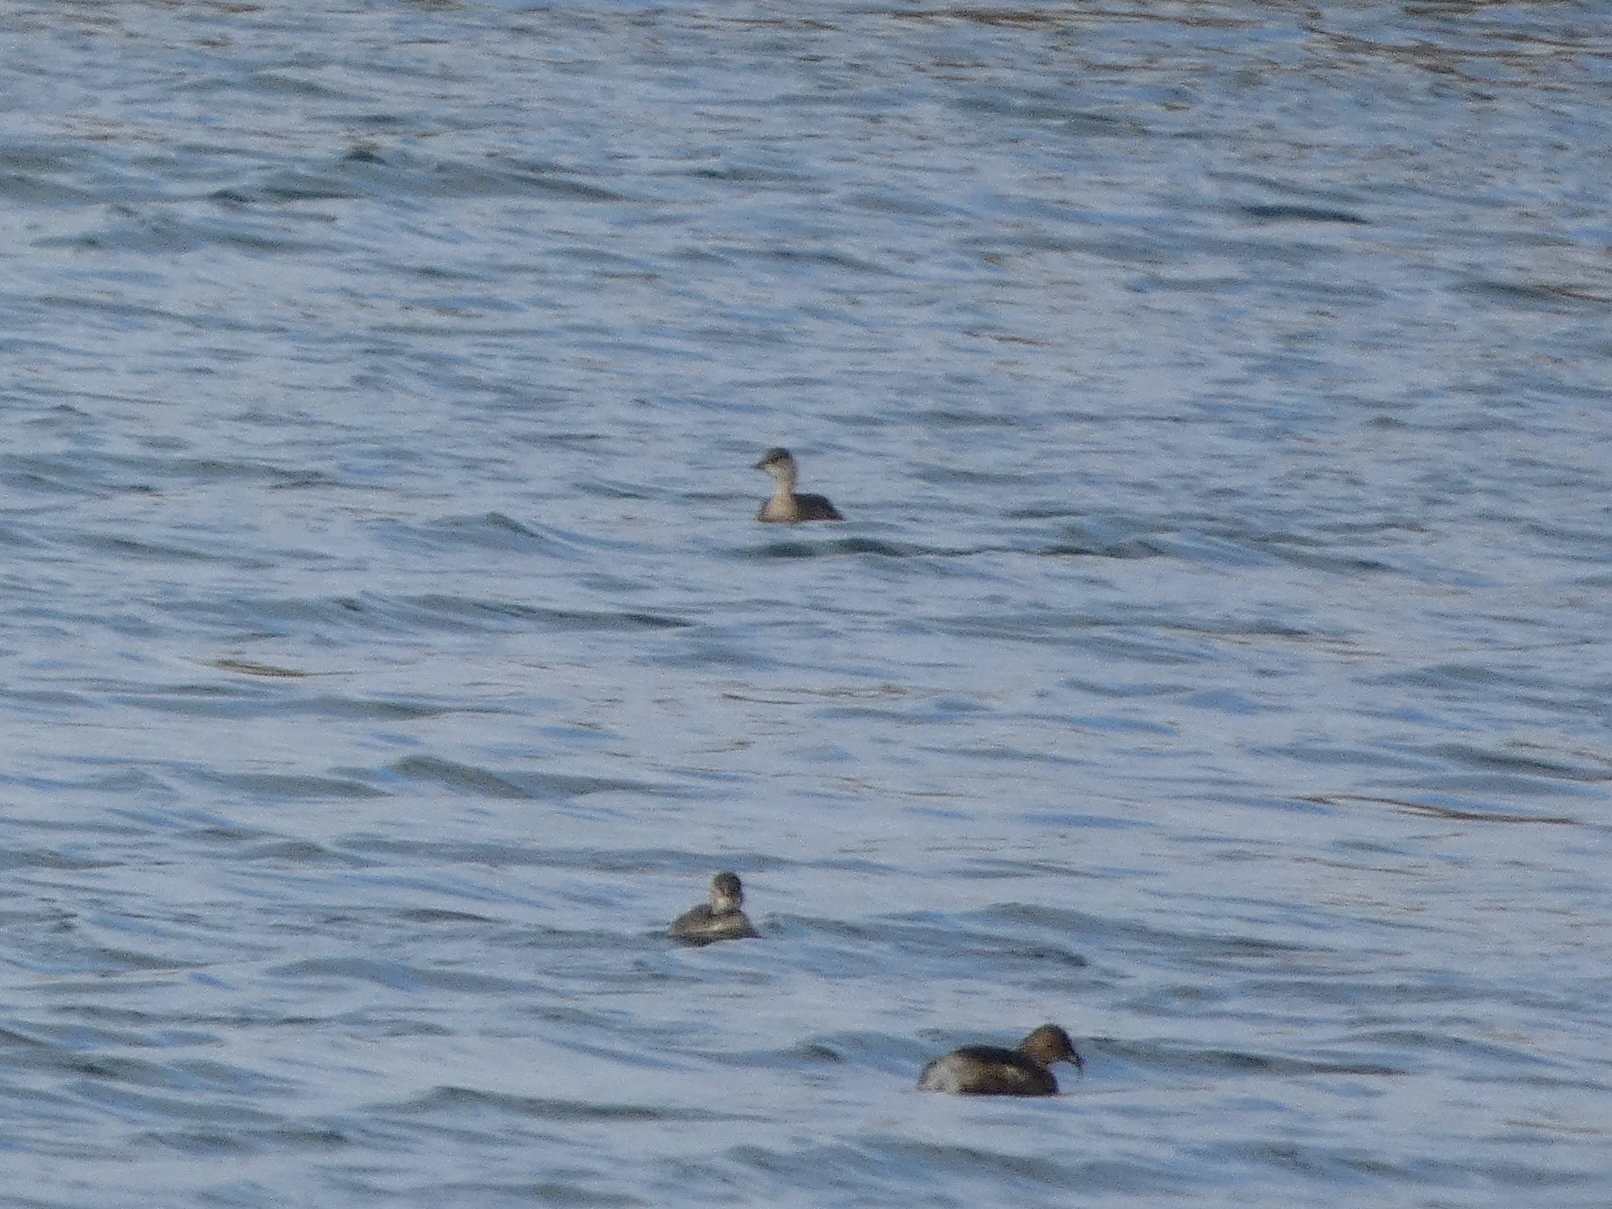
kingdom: Animalia
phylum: Chordata
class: Aves
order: Podicipediformes
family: Podicipedidae
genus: Tachybaptus
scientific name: Tachybaptus ruficollis
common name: Little grebe
